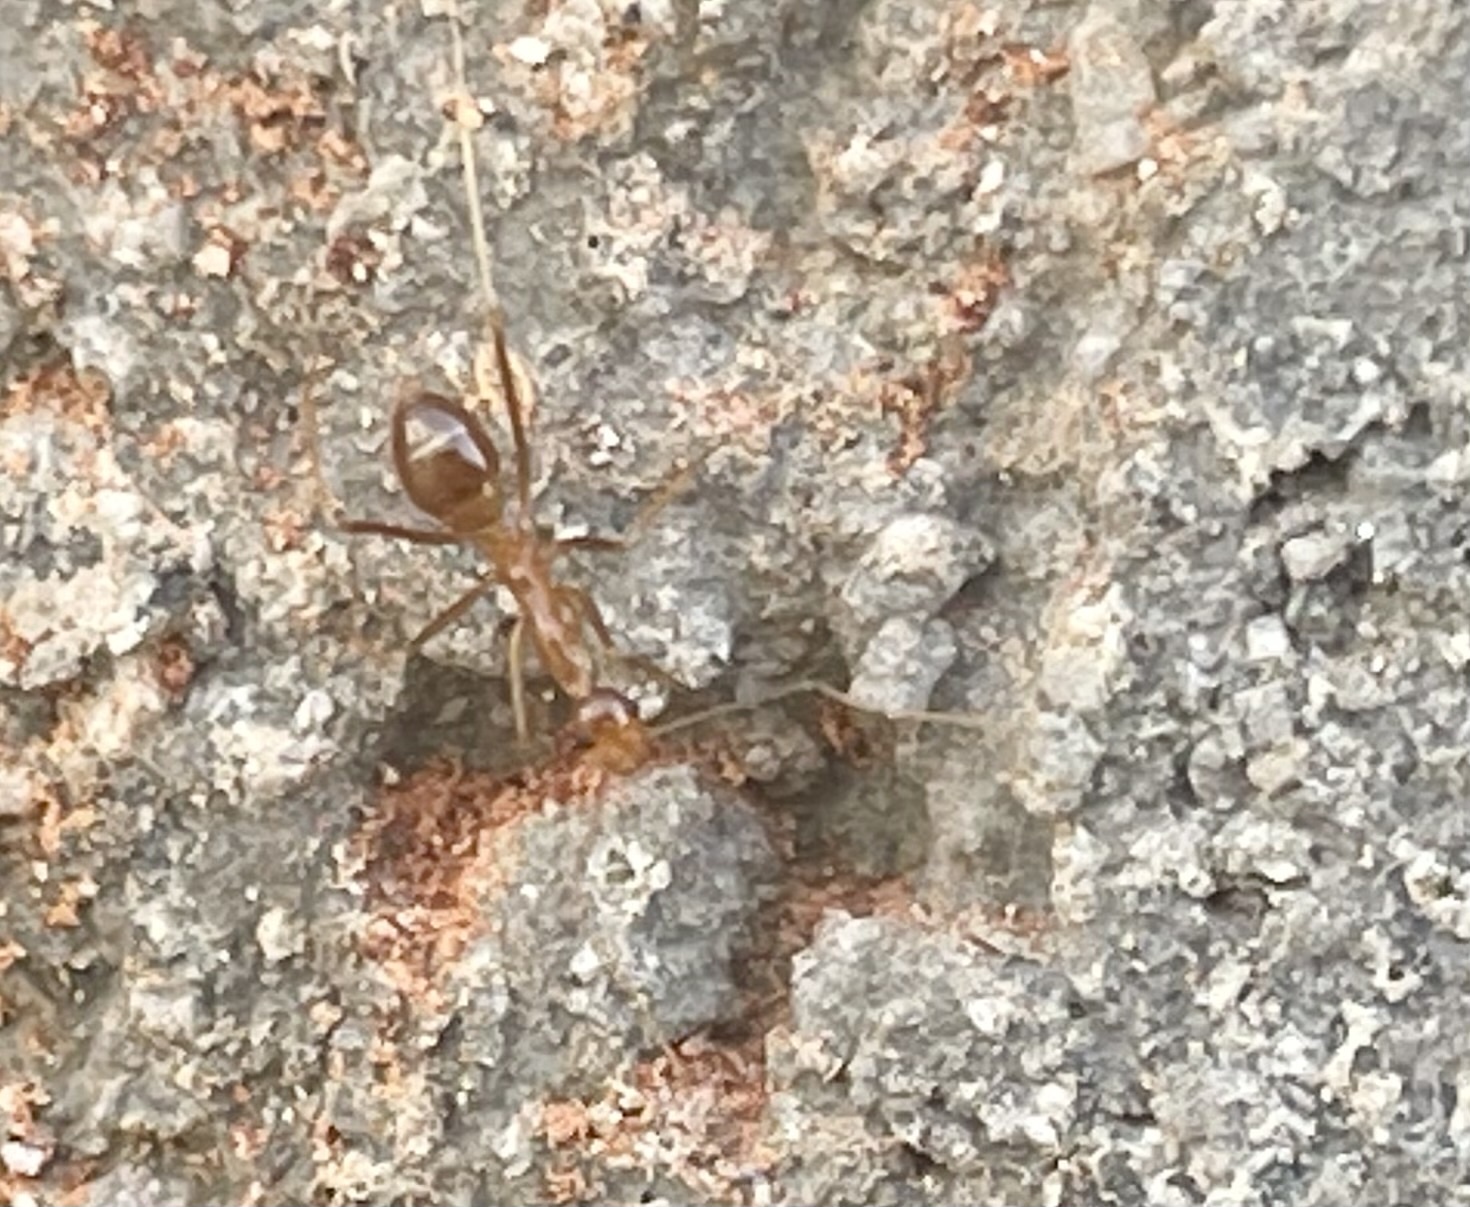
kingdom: Animalia
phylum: Arthropoda
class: Insecta
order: Hymenoptera
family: Formicidae
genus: Anoplolepis
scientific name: Anoplolepis gracilipes
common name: Ant
